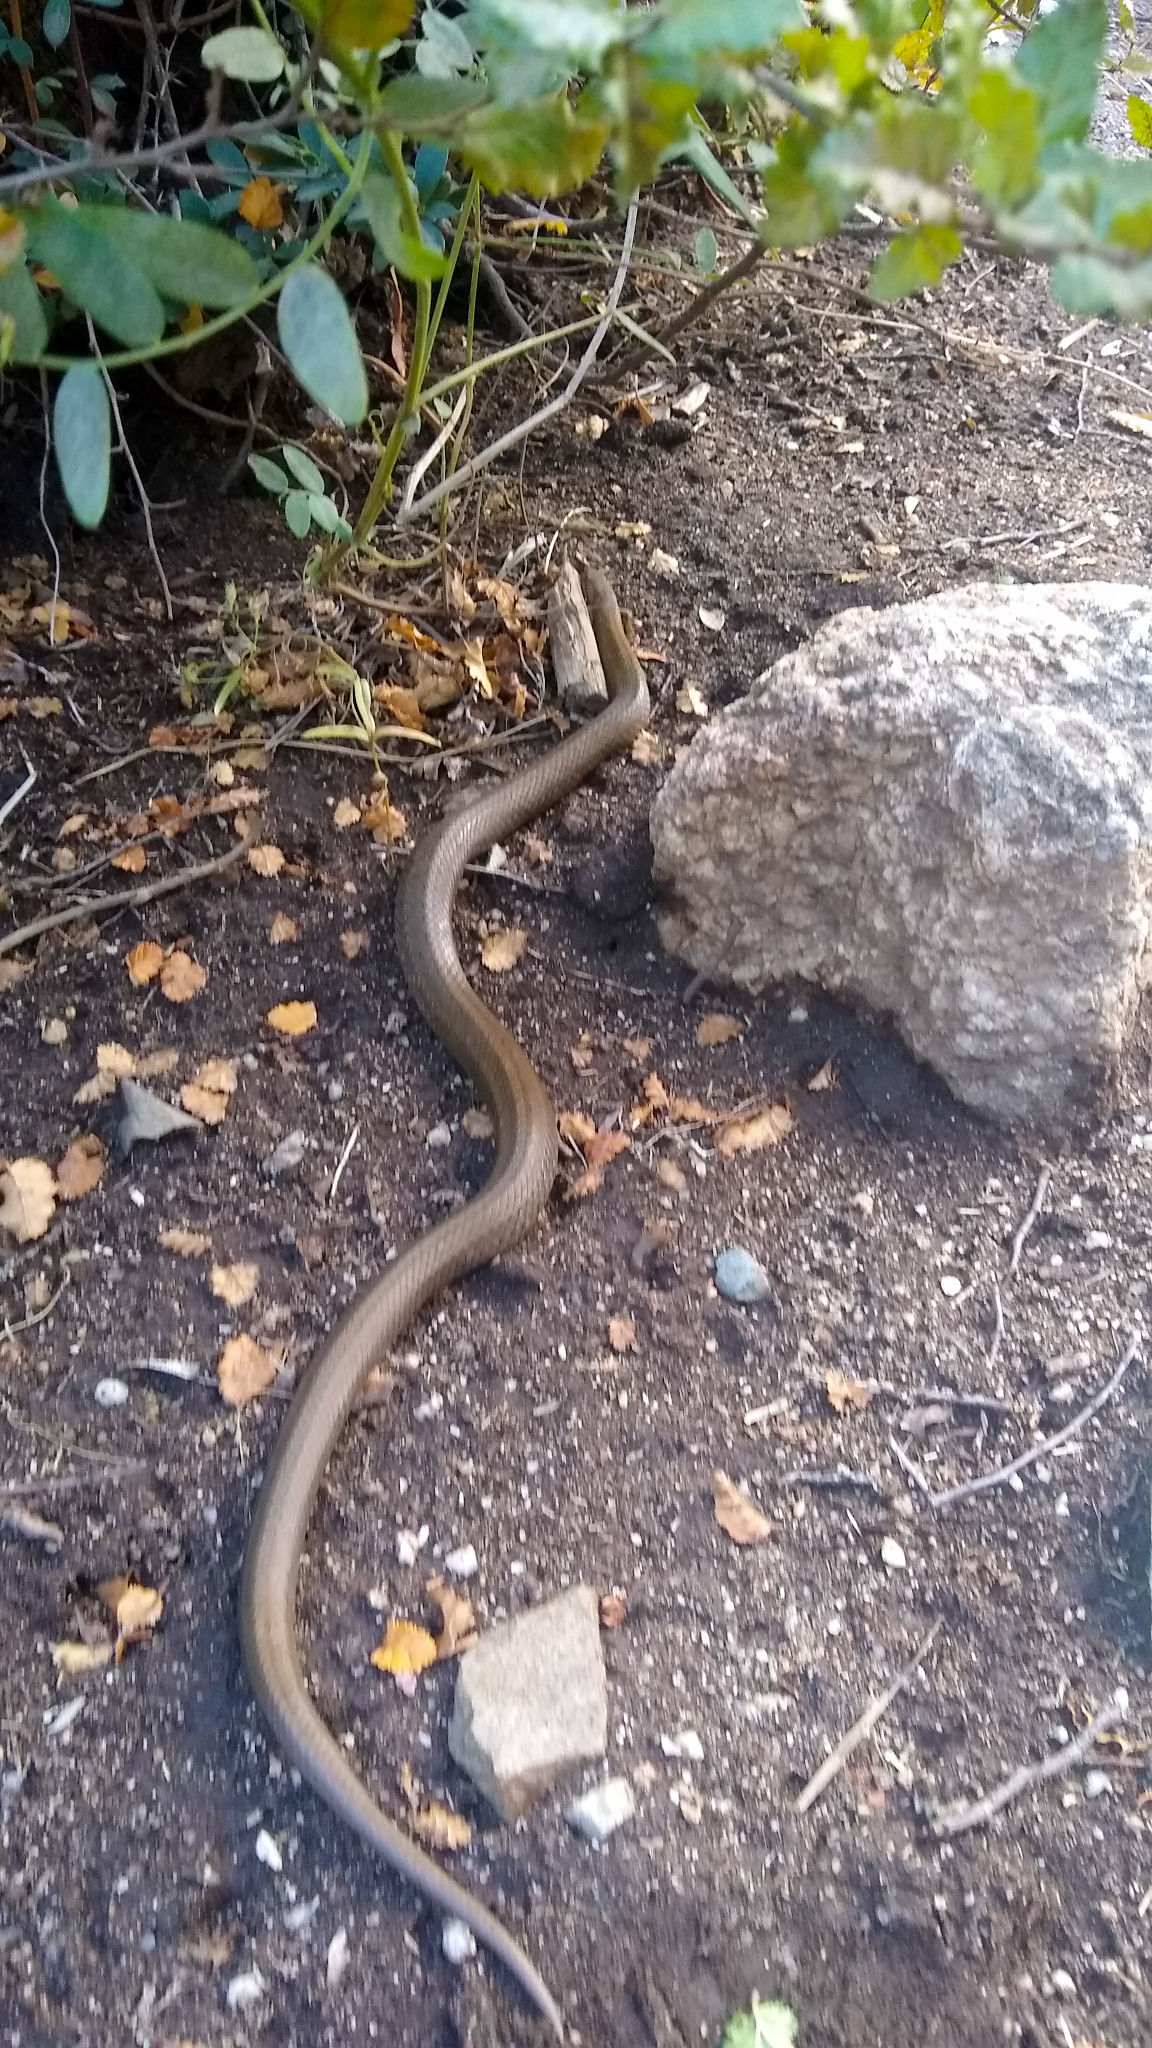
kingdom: Animalia
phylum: Chordata
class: Squamata
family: Colubridae
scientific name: Colubridae
